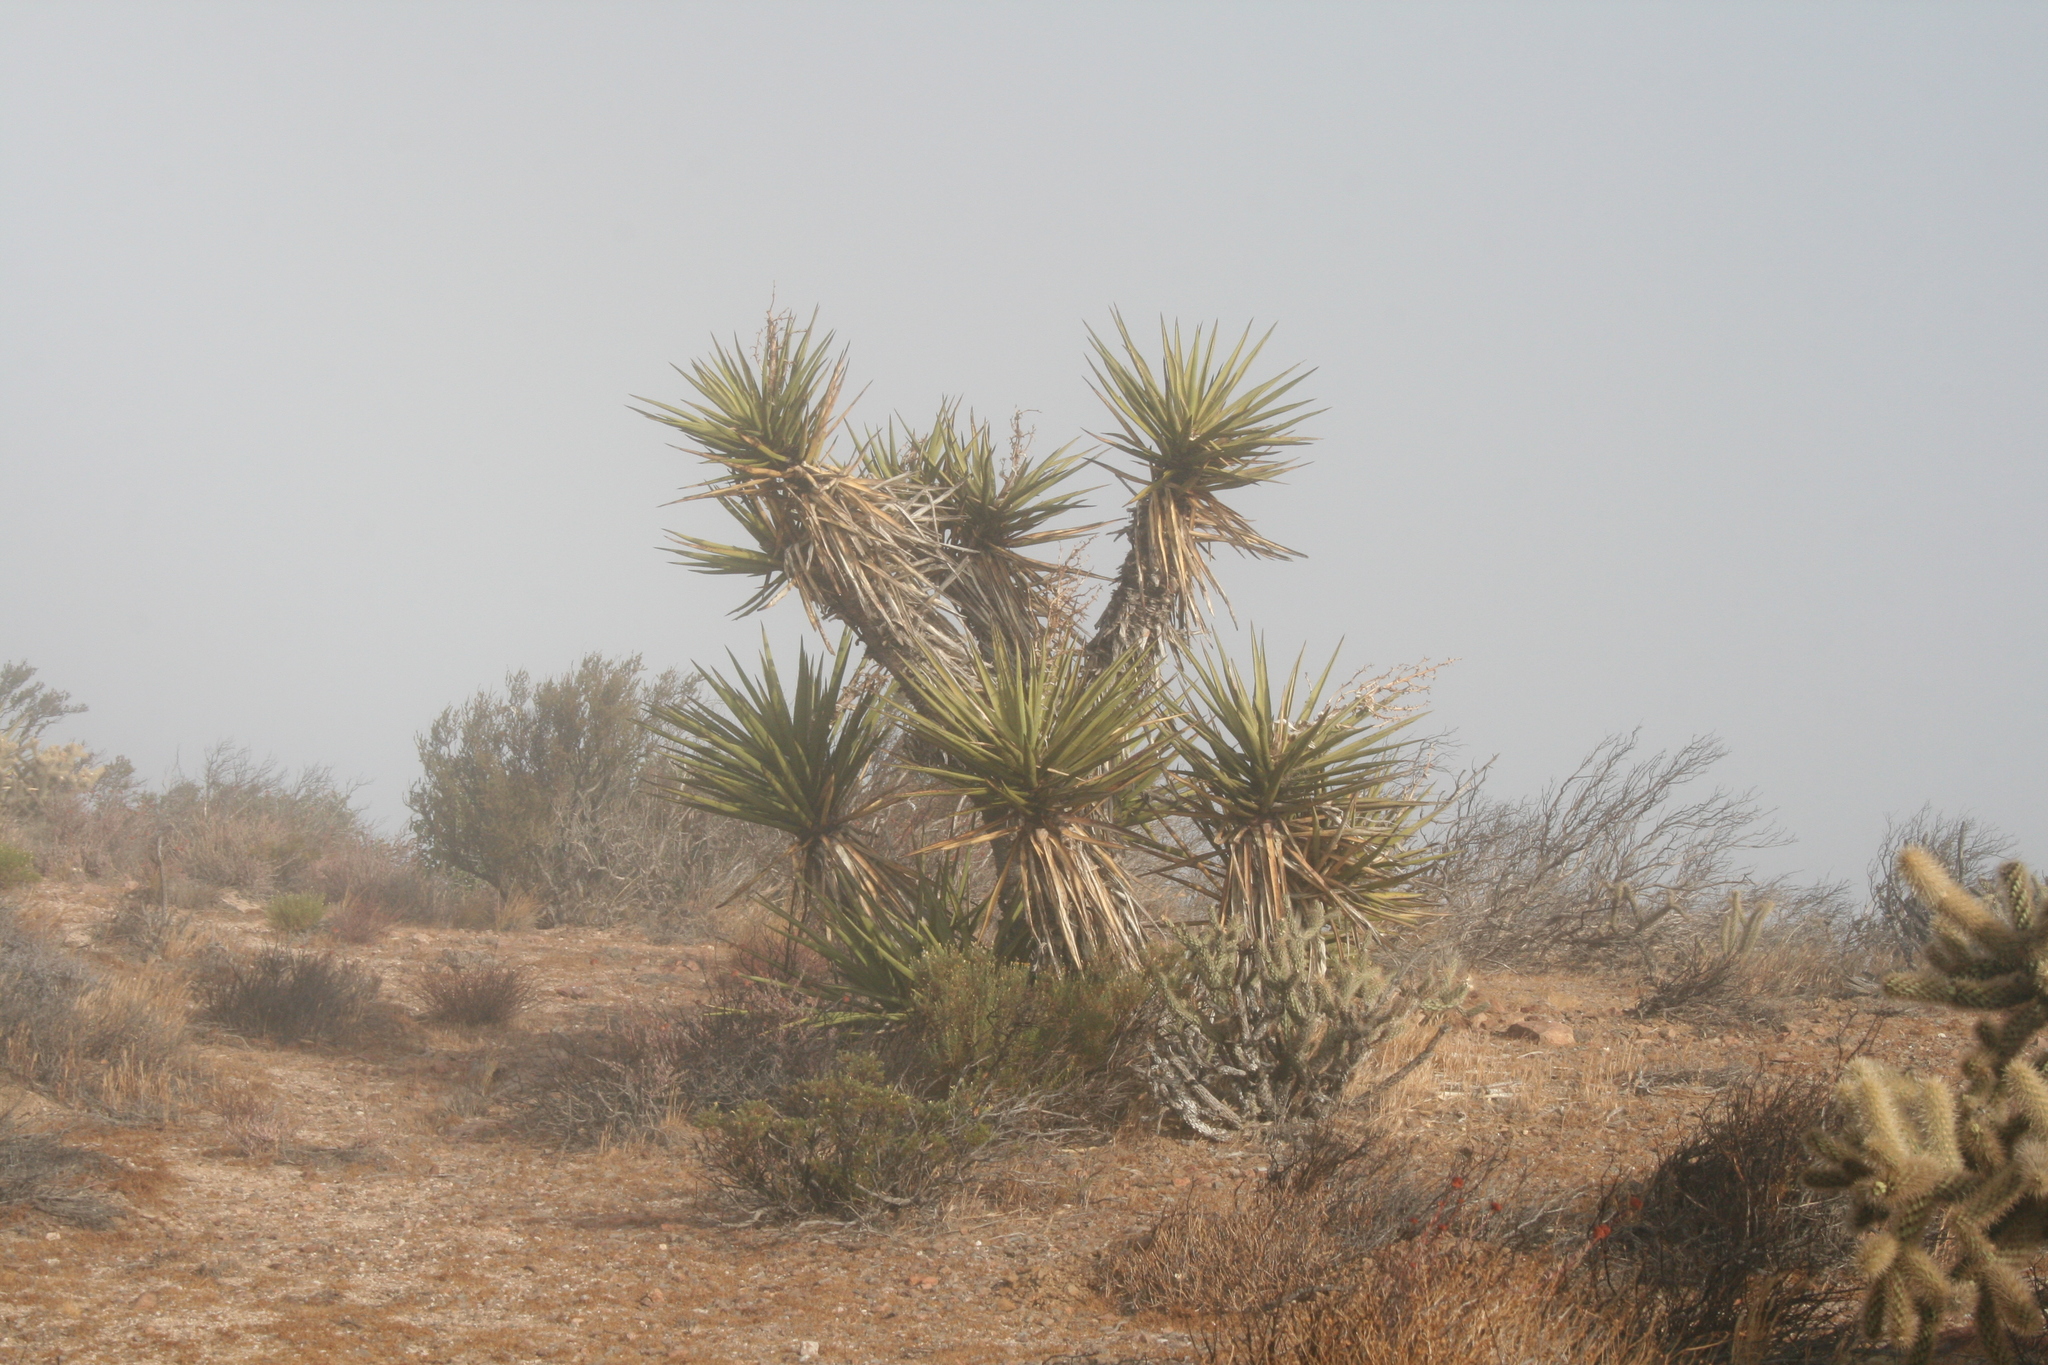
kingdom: Plantae
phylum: Tracheophyta
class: Liliopsida
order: Asparagales
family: Asparagaceae
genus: Yucca
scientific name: Yucca schidigera
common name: Mojave yucca
